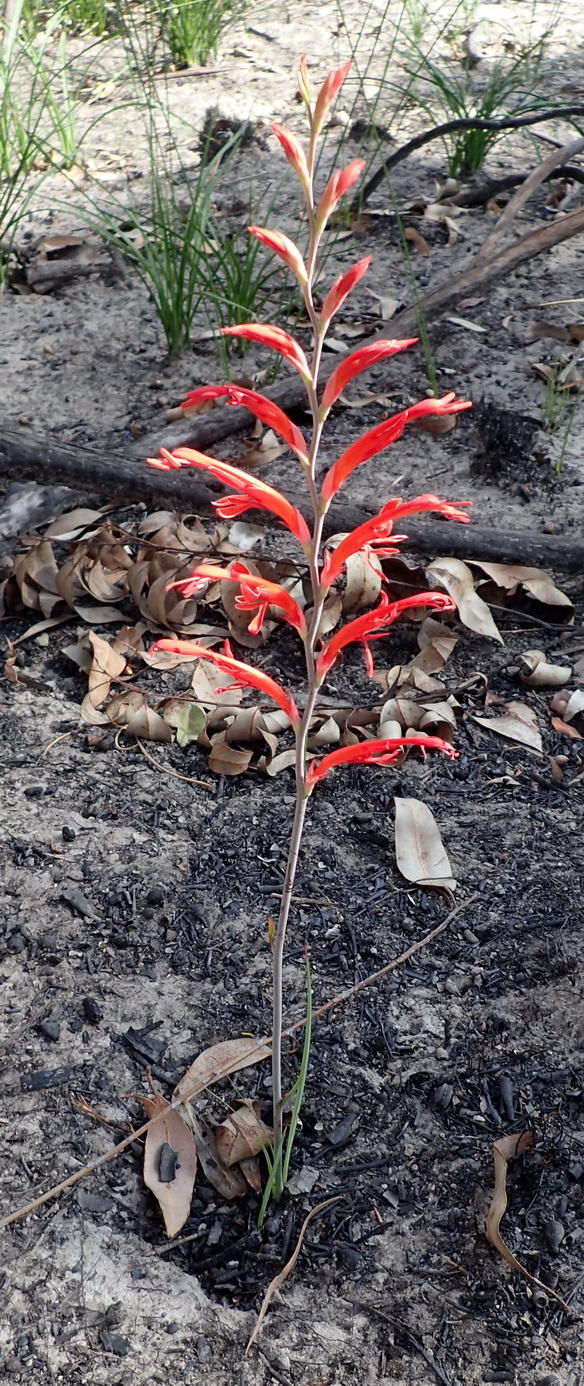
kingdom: Plantae
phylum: Tracheophyta
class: Liliopsida
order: Asparagales
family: Iridaceae
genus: Tritoniopsis
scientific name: Tritoniopsis caffra
